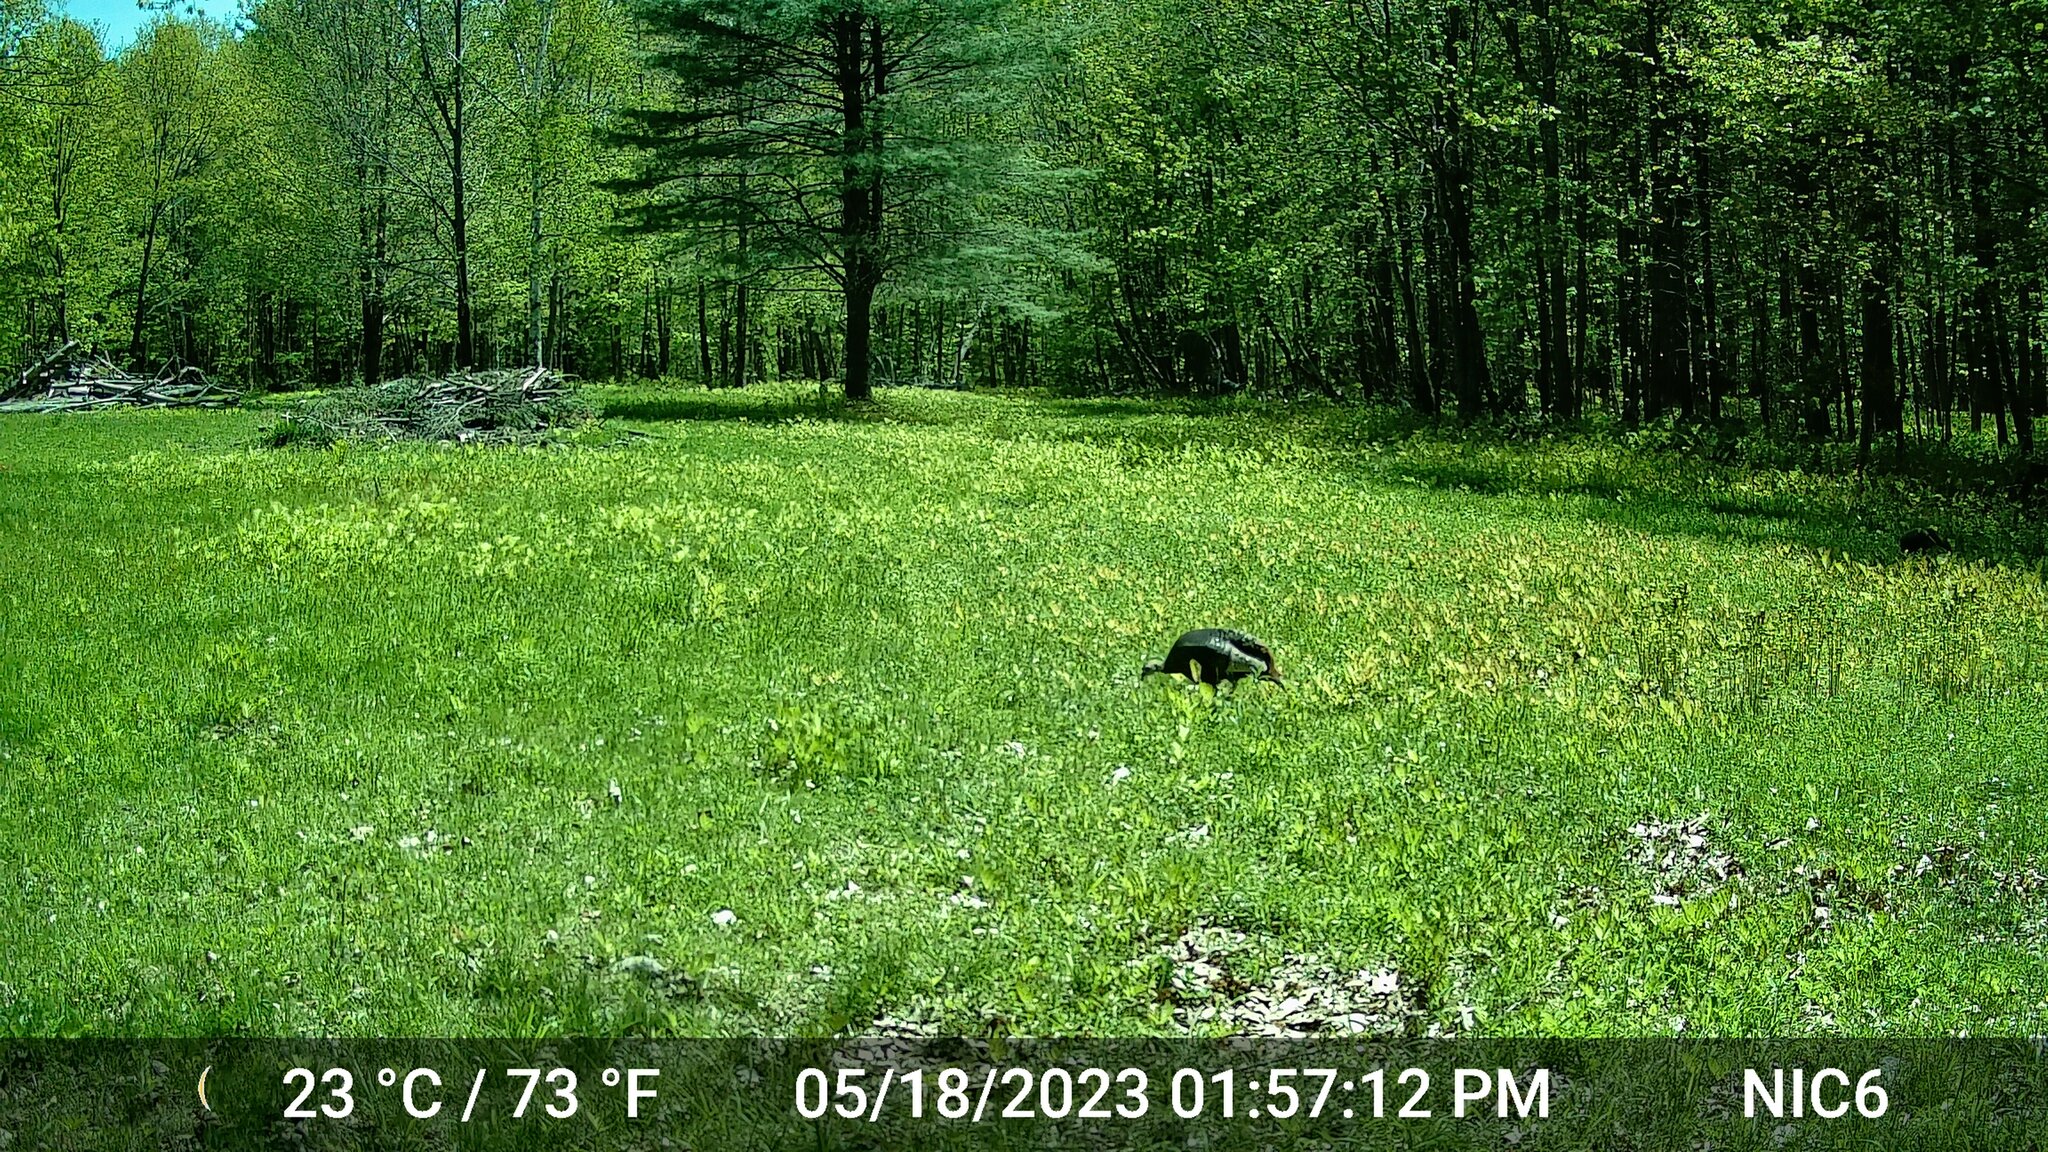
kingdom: Animalia
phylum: Chordata
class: Aves
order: Galliformes
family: Phasianidae
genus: Meleagris
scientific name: Meleagris gallopavo
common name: Wild turkey
